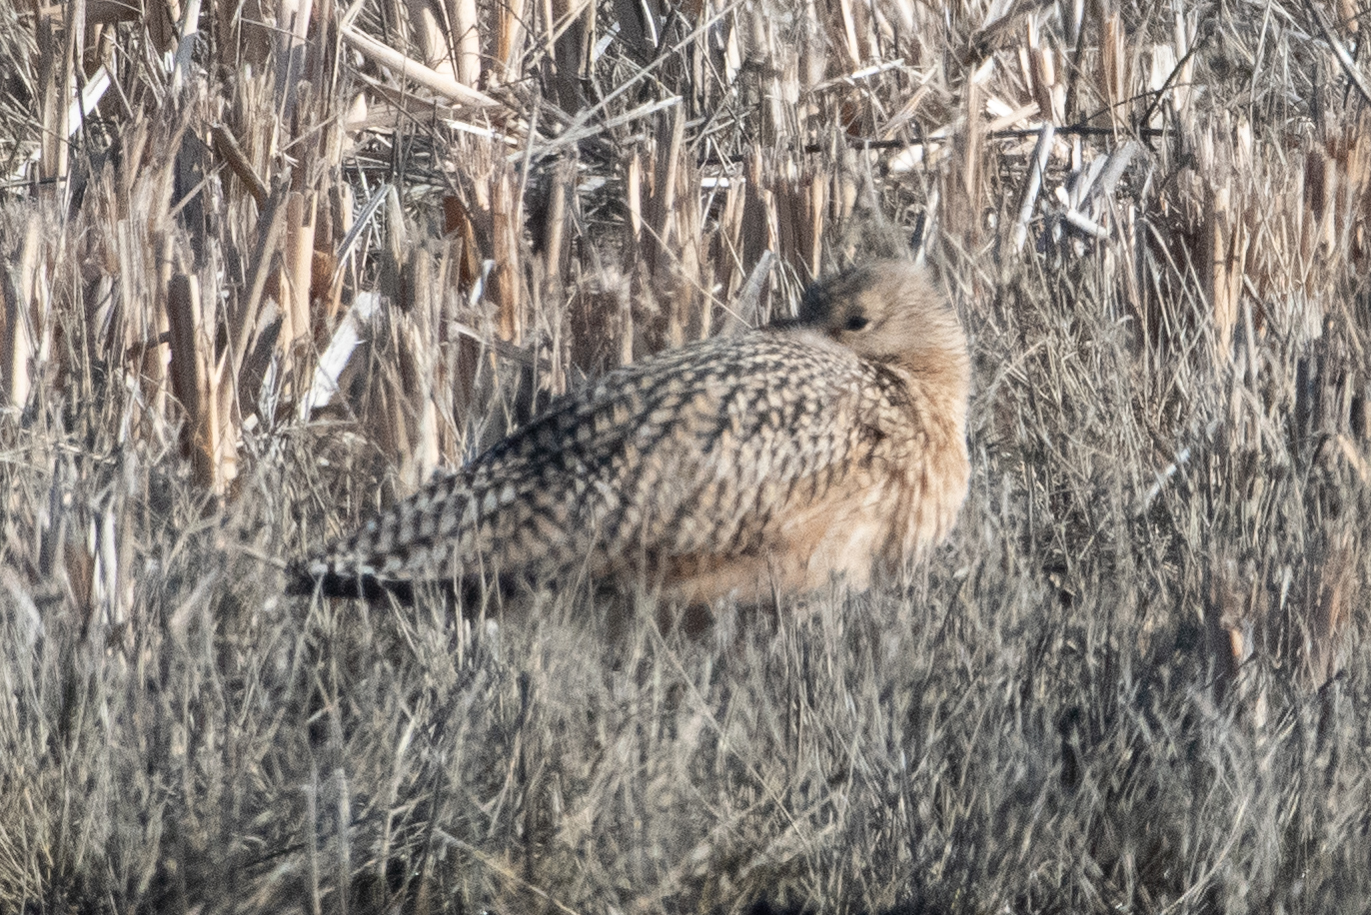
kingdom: Animalia
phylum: Chordata
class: Aves
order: Charadriiformes
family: Scolopacidae
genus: Numenius
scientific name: Numenius americanus
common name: Long-billed curlew
